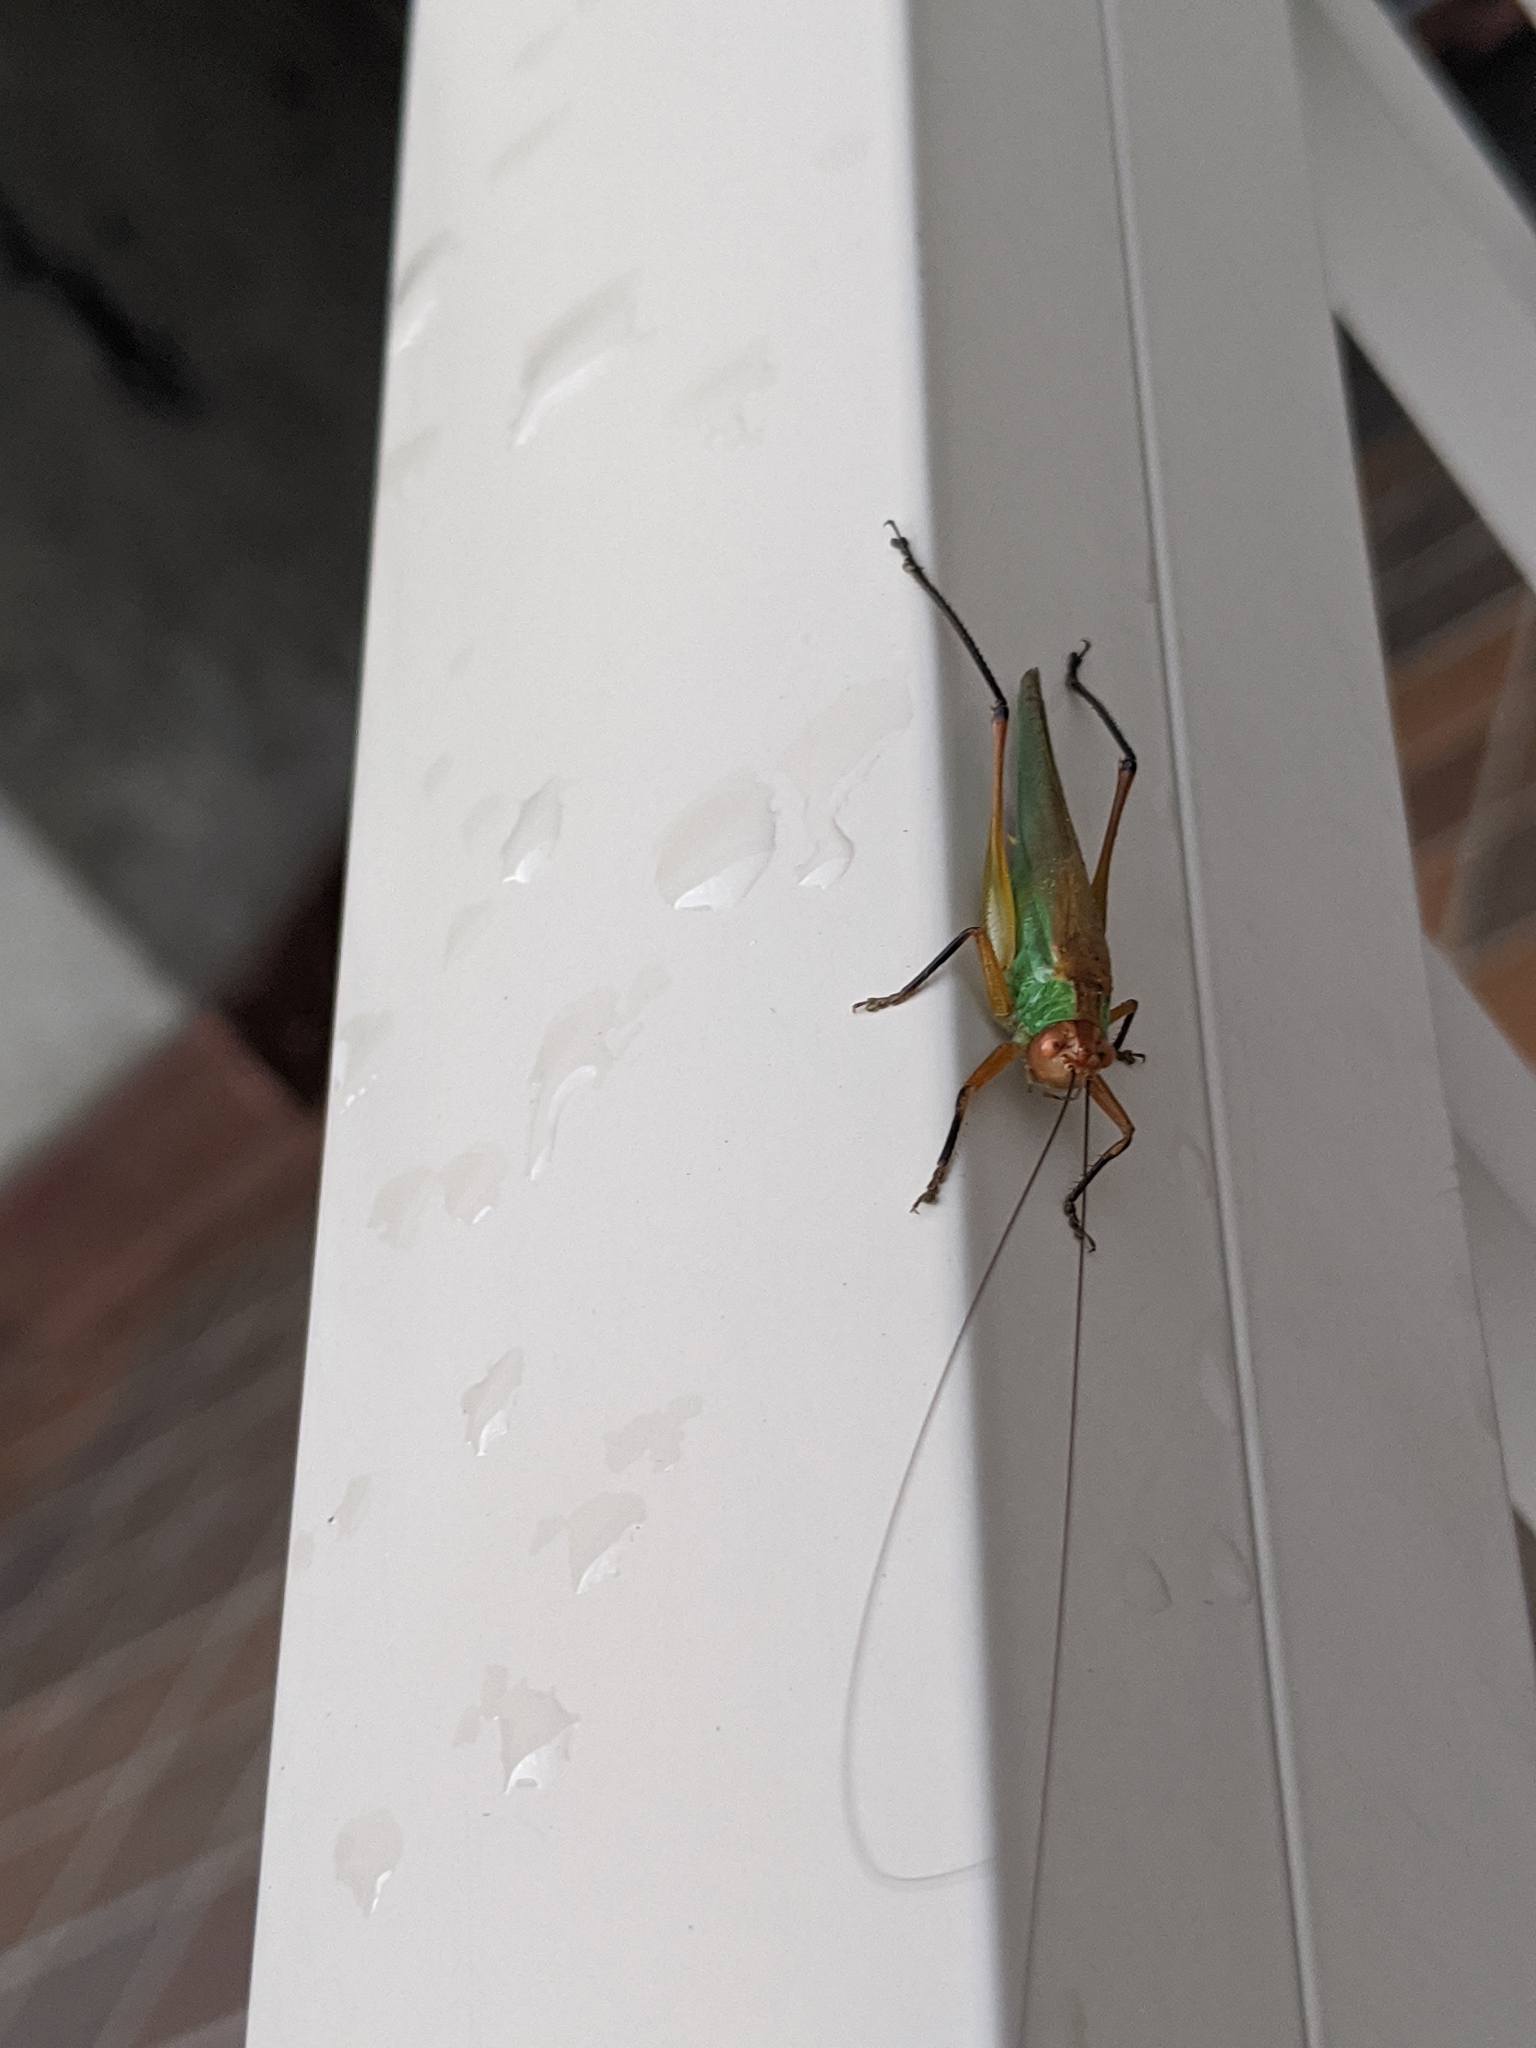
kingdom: Animalia
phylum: Arthropoda
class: Insecta
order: Orthoptera
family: Tettigoniidae
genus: Orchelimum
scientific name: Orchelimum nigripes
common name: Black-legged meadow katydid
